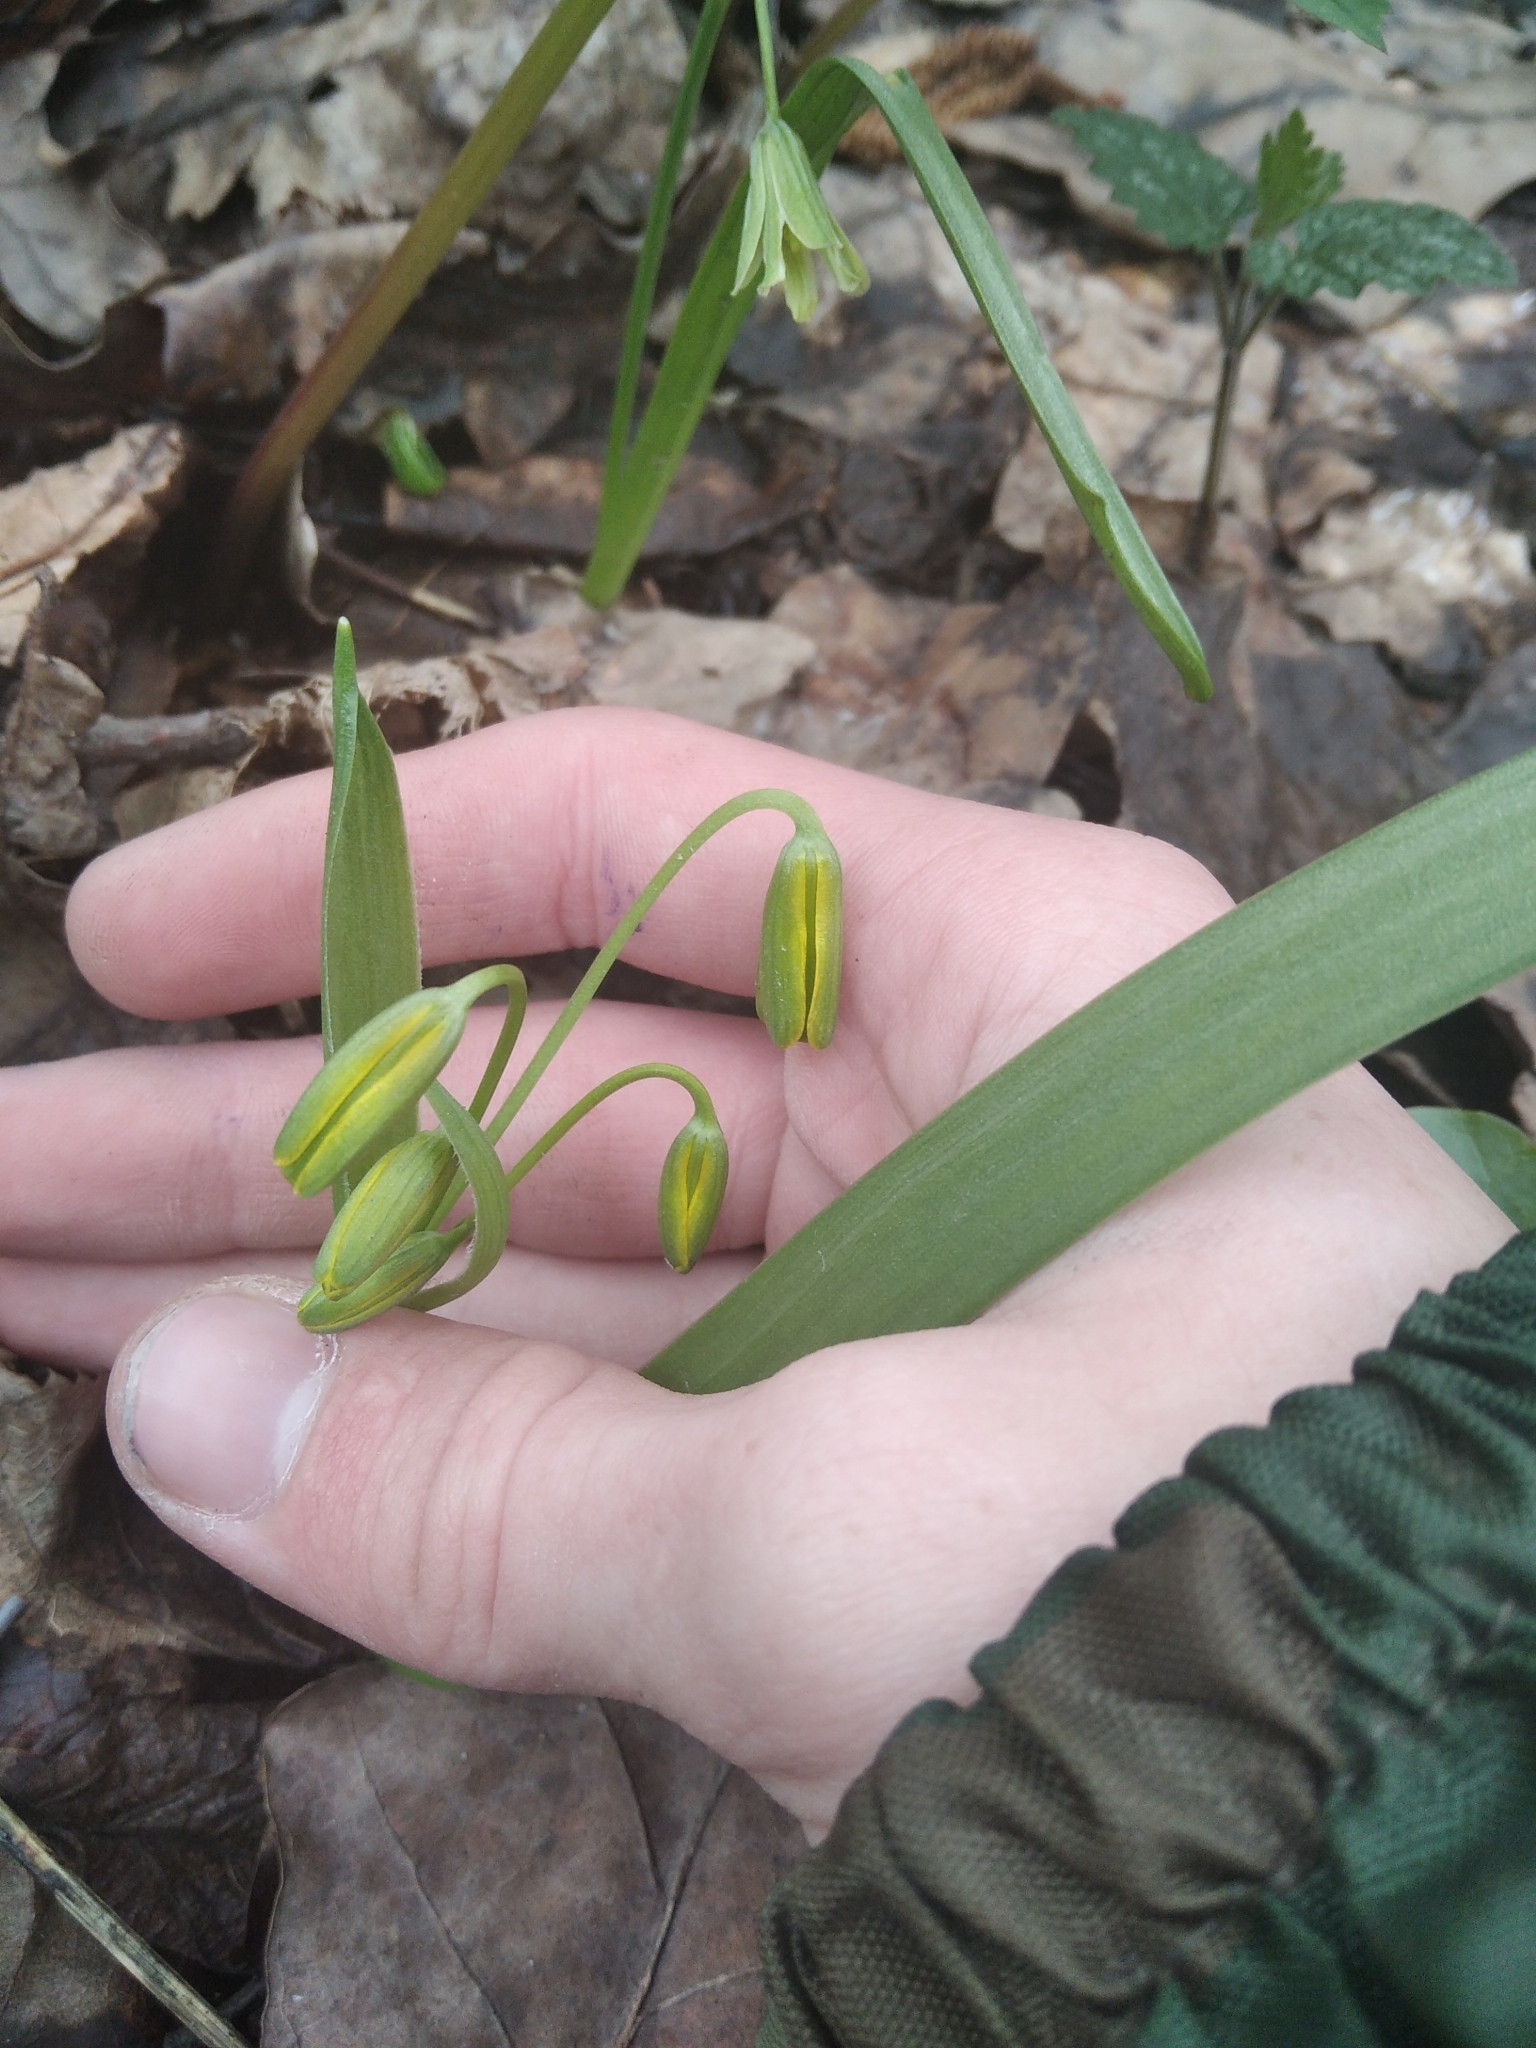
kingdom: Plantae
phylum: Tracheophyta
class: Liliopsida
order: Liliales
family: Liliaceae
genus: Gagea
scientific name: Gagea lutea
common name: Yellow star-of-bethlehem
